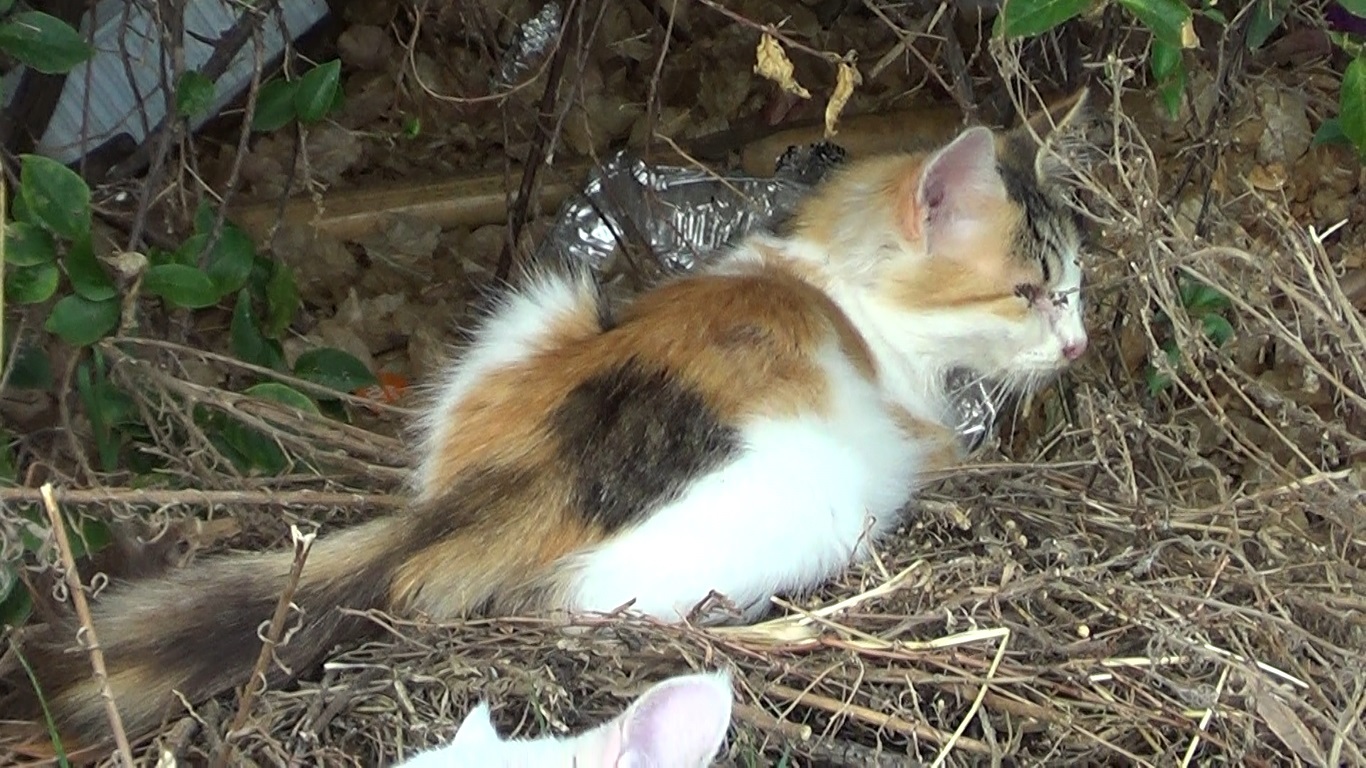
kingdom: Animalia
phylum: Chordata
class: Mammalia
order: Carnivora
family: Felidae
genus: Felis
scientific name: Felis catus
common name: Domestic cat
